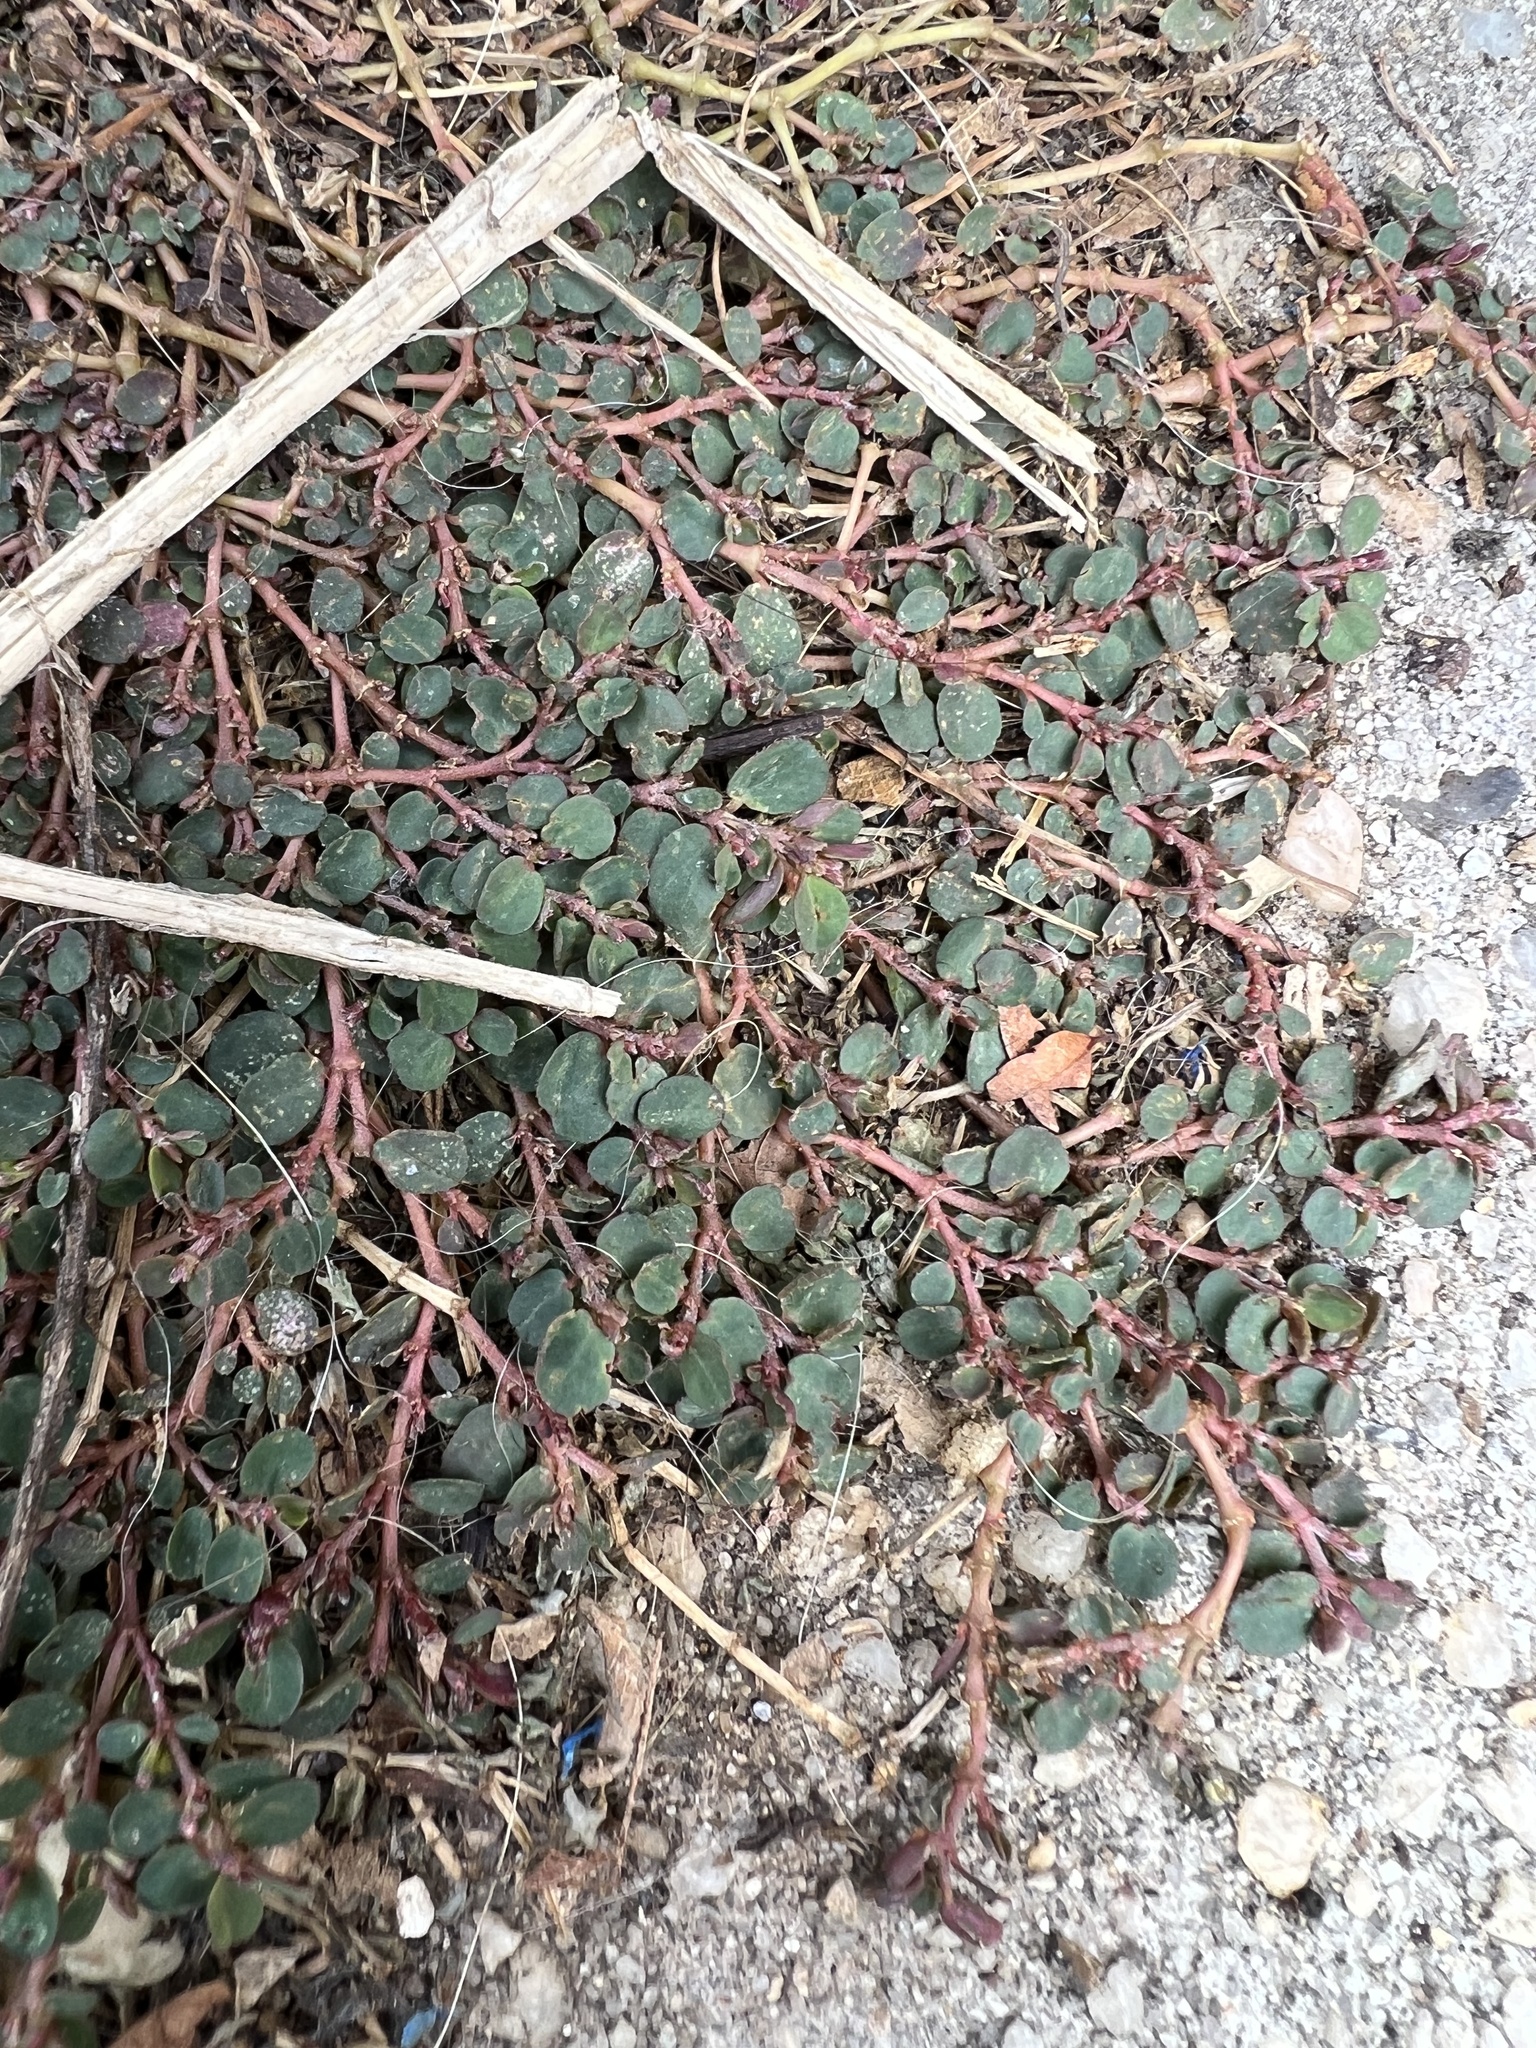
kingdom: Plantae
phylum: Tracheophyta
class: Magnoliopsida
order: Malpighiales
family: Euphorbiaceae
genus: Euphorbia
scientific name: Euphorbia prostrata
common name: Prostrate sandmat
